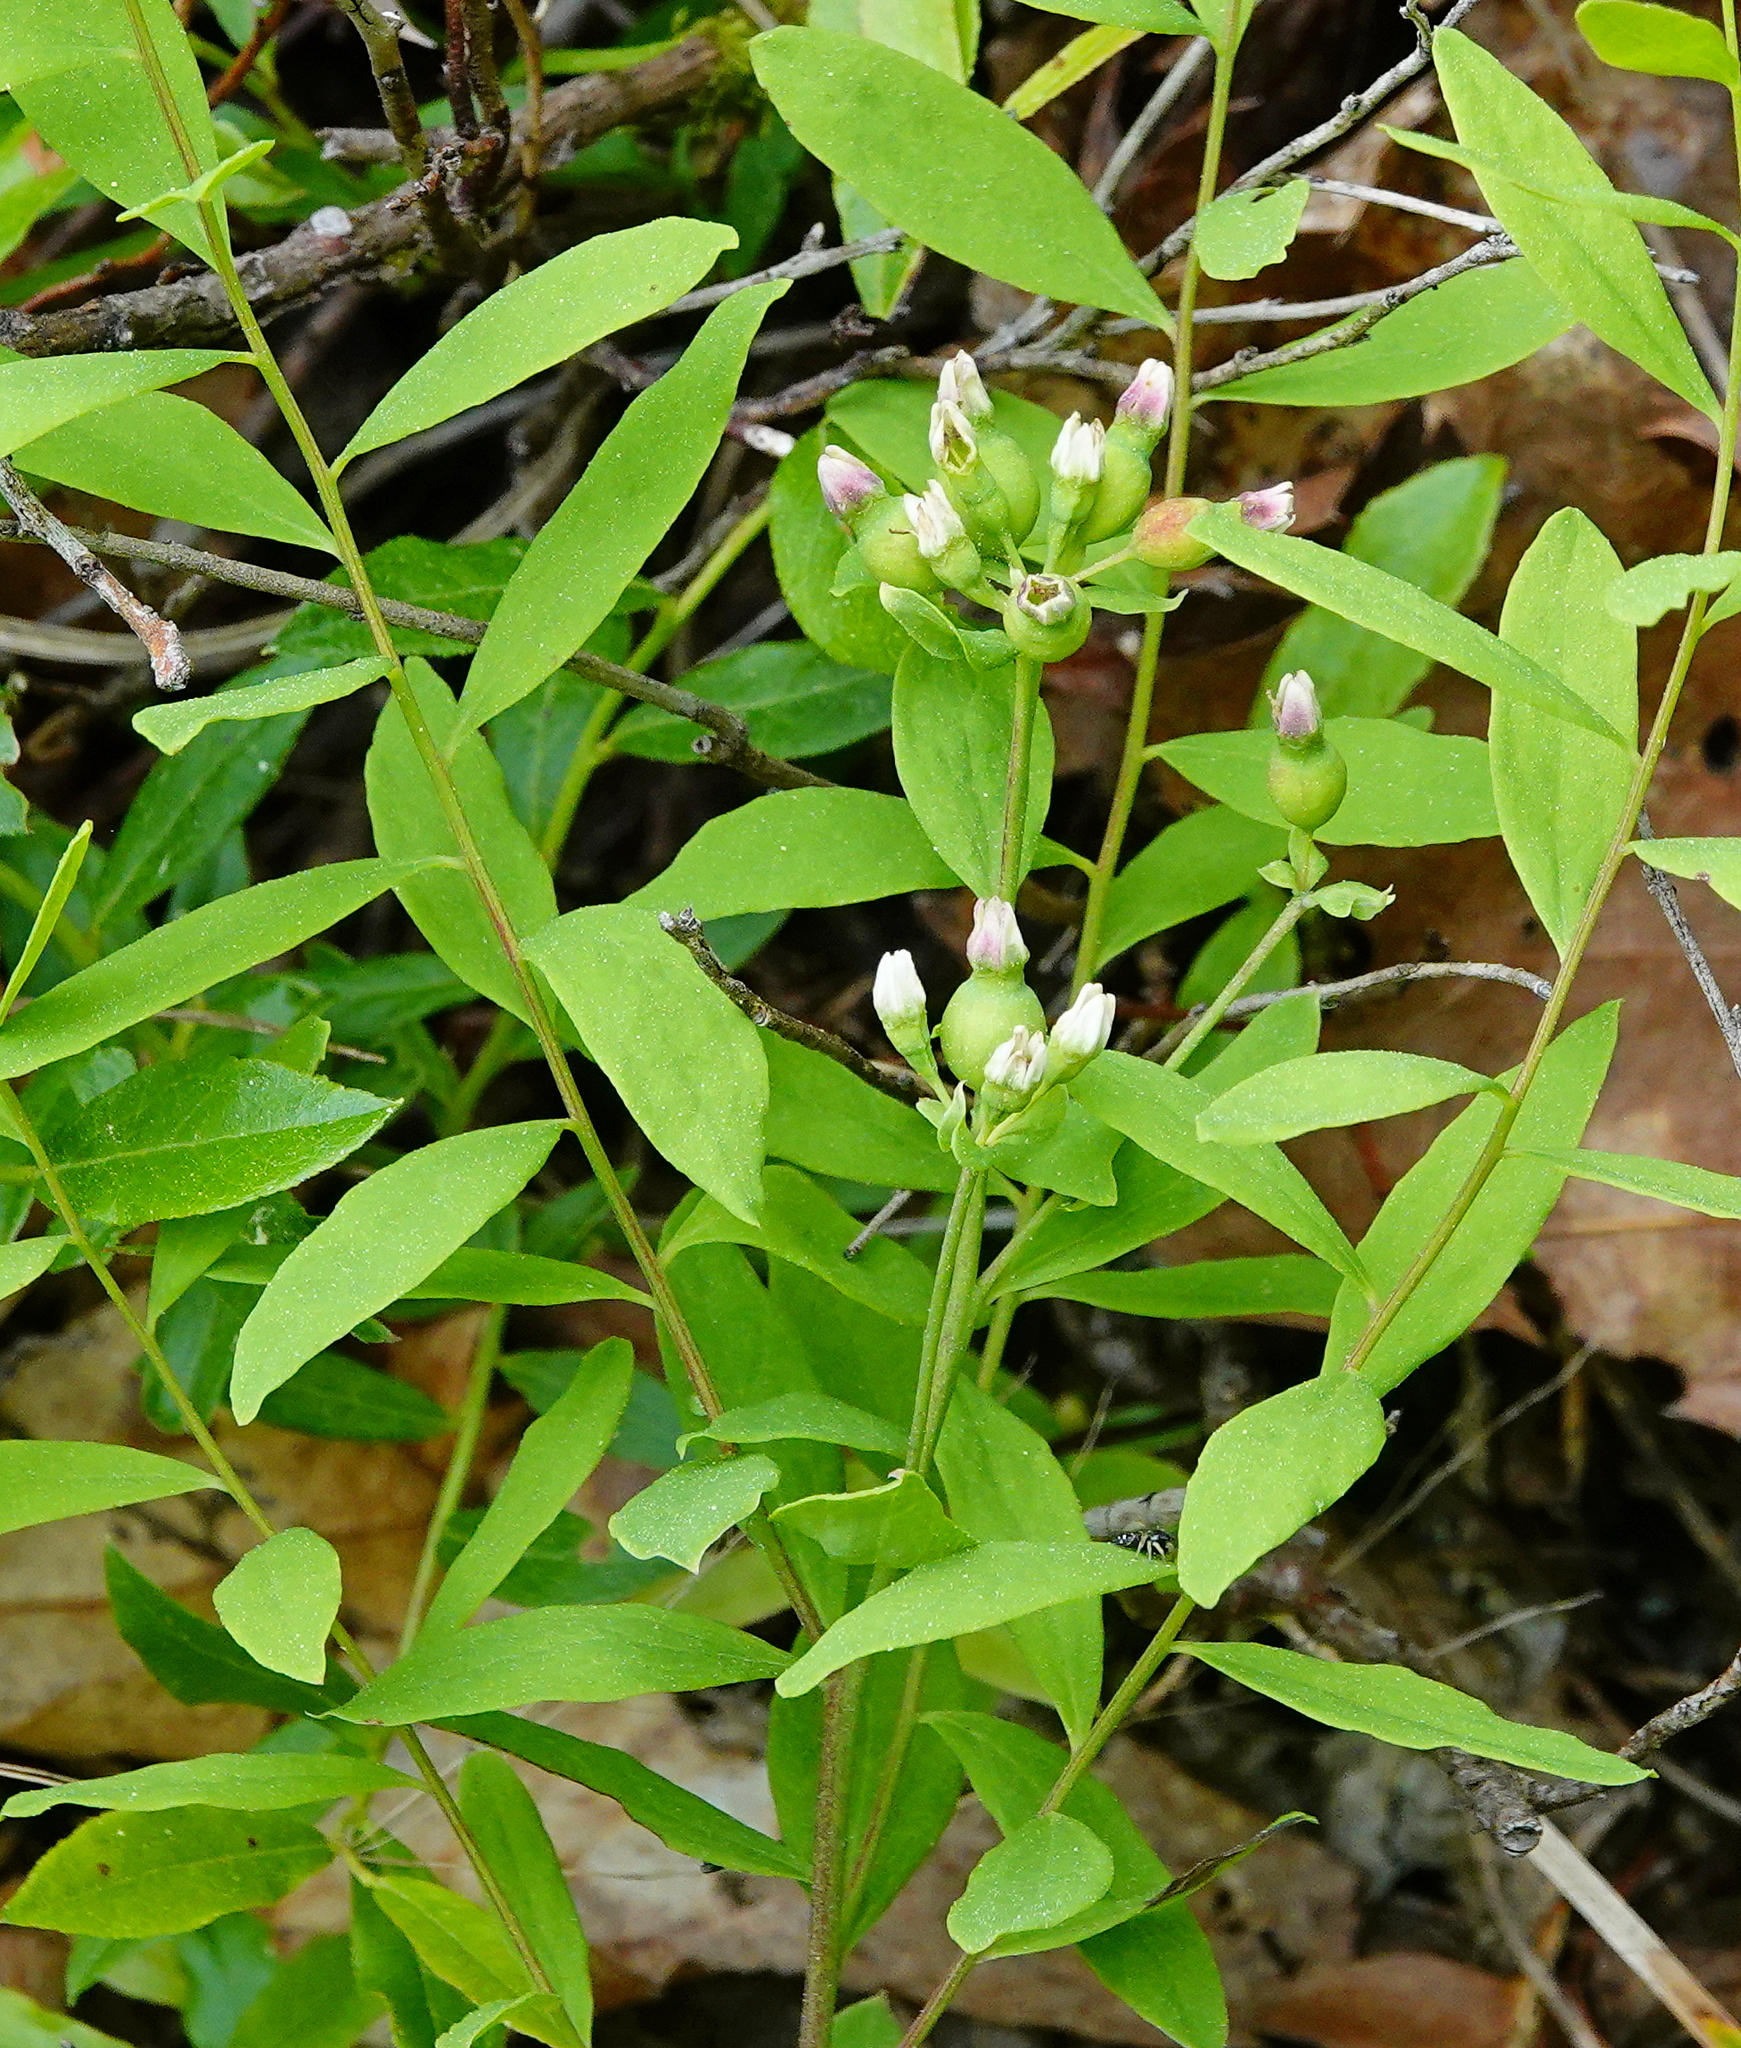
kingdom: Plantae
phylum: Tracheophyta
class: Magnoliopsida
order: Santalales
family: Comandraceae
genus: Comandra
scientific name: Comandra umbellata
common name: Bastard toadflax
